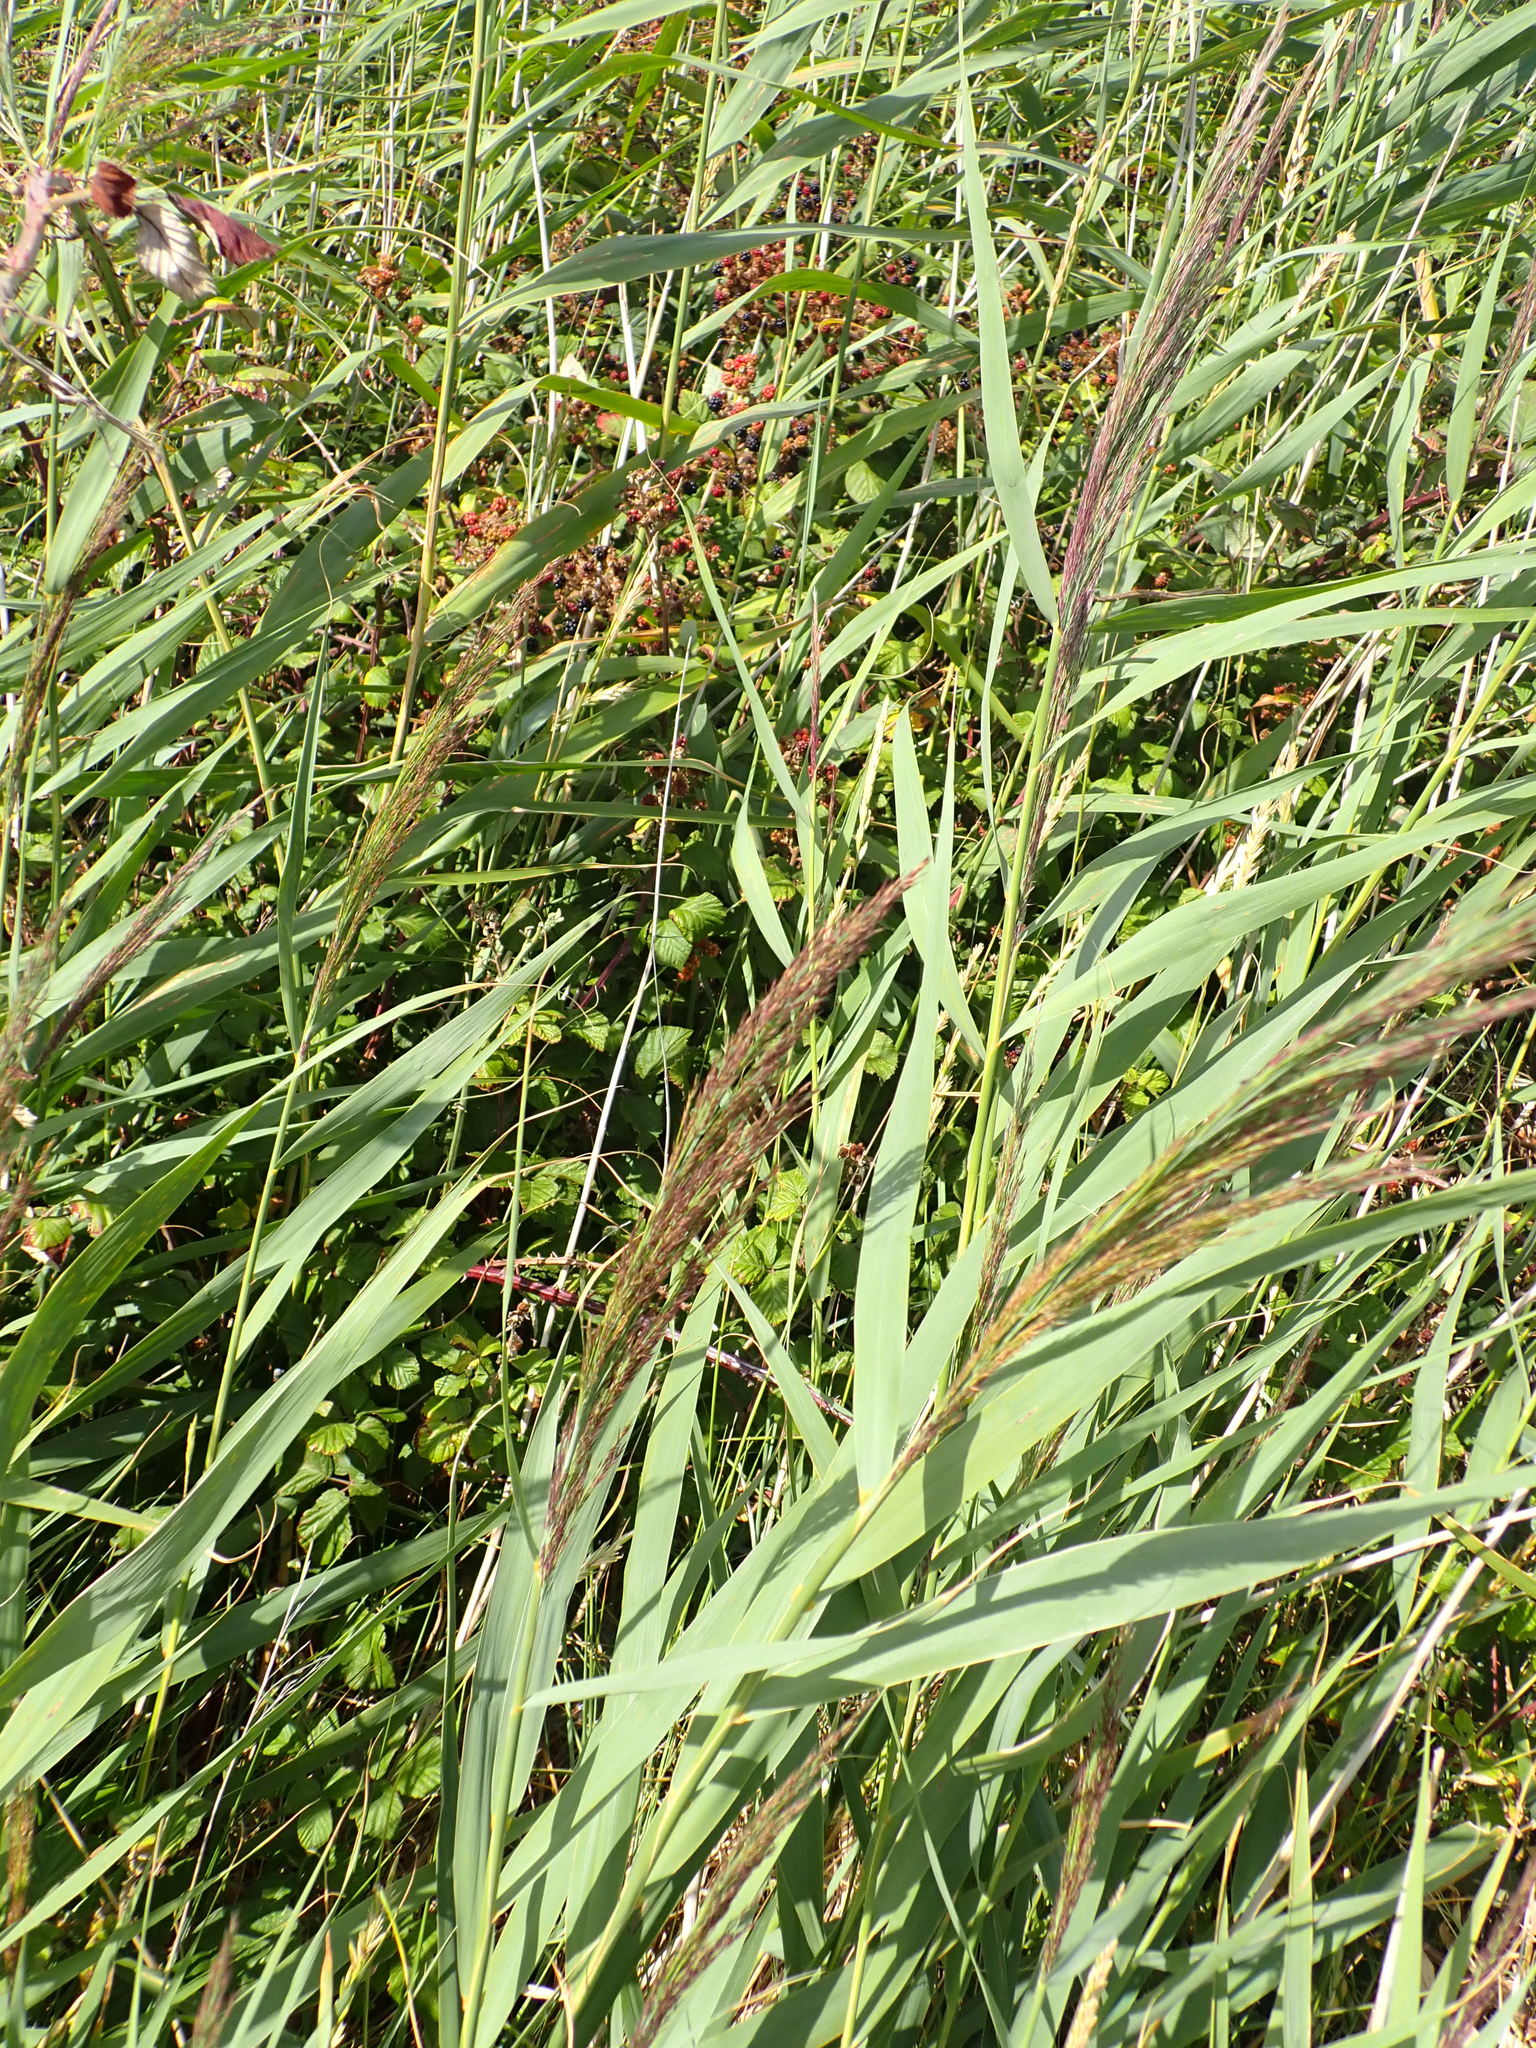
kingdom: Plantae
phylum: Tracheophyta
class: Liliopsida
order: Poales
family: Poaceae
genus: Phragmites
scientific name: Phragmites australis
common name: Common reed
